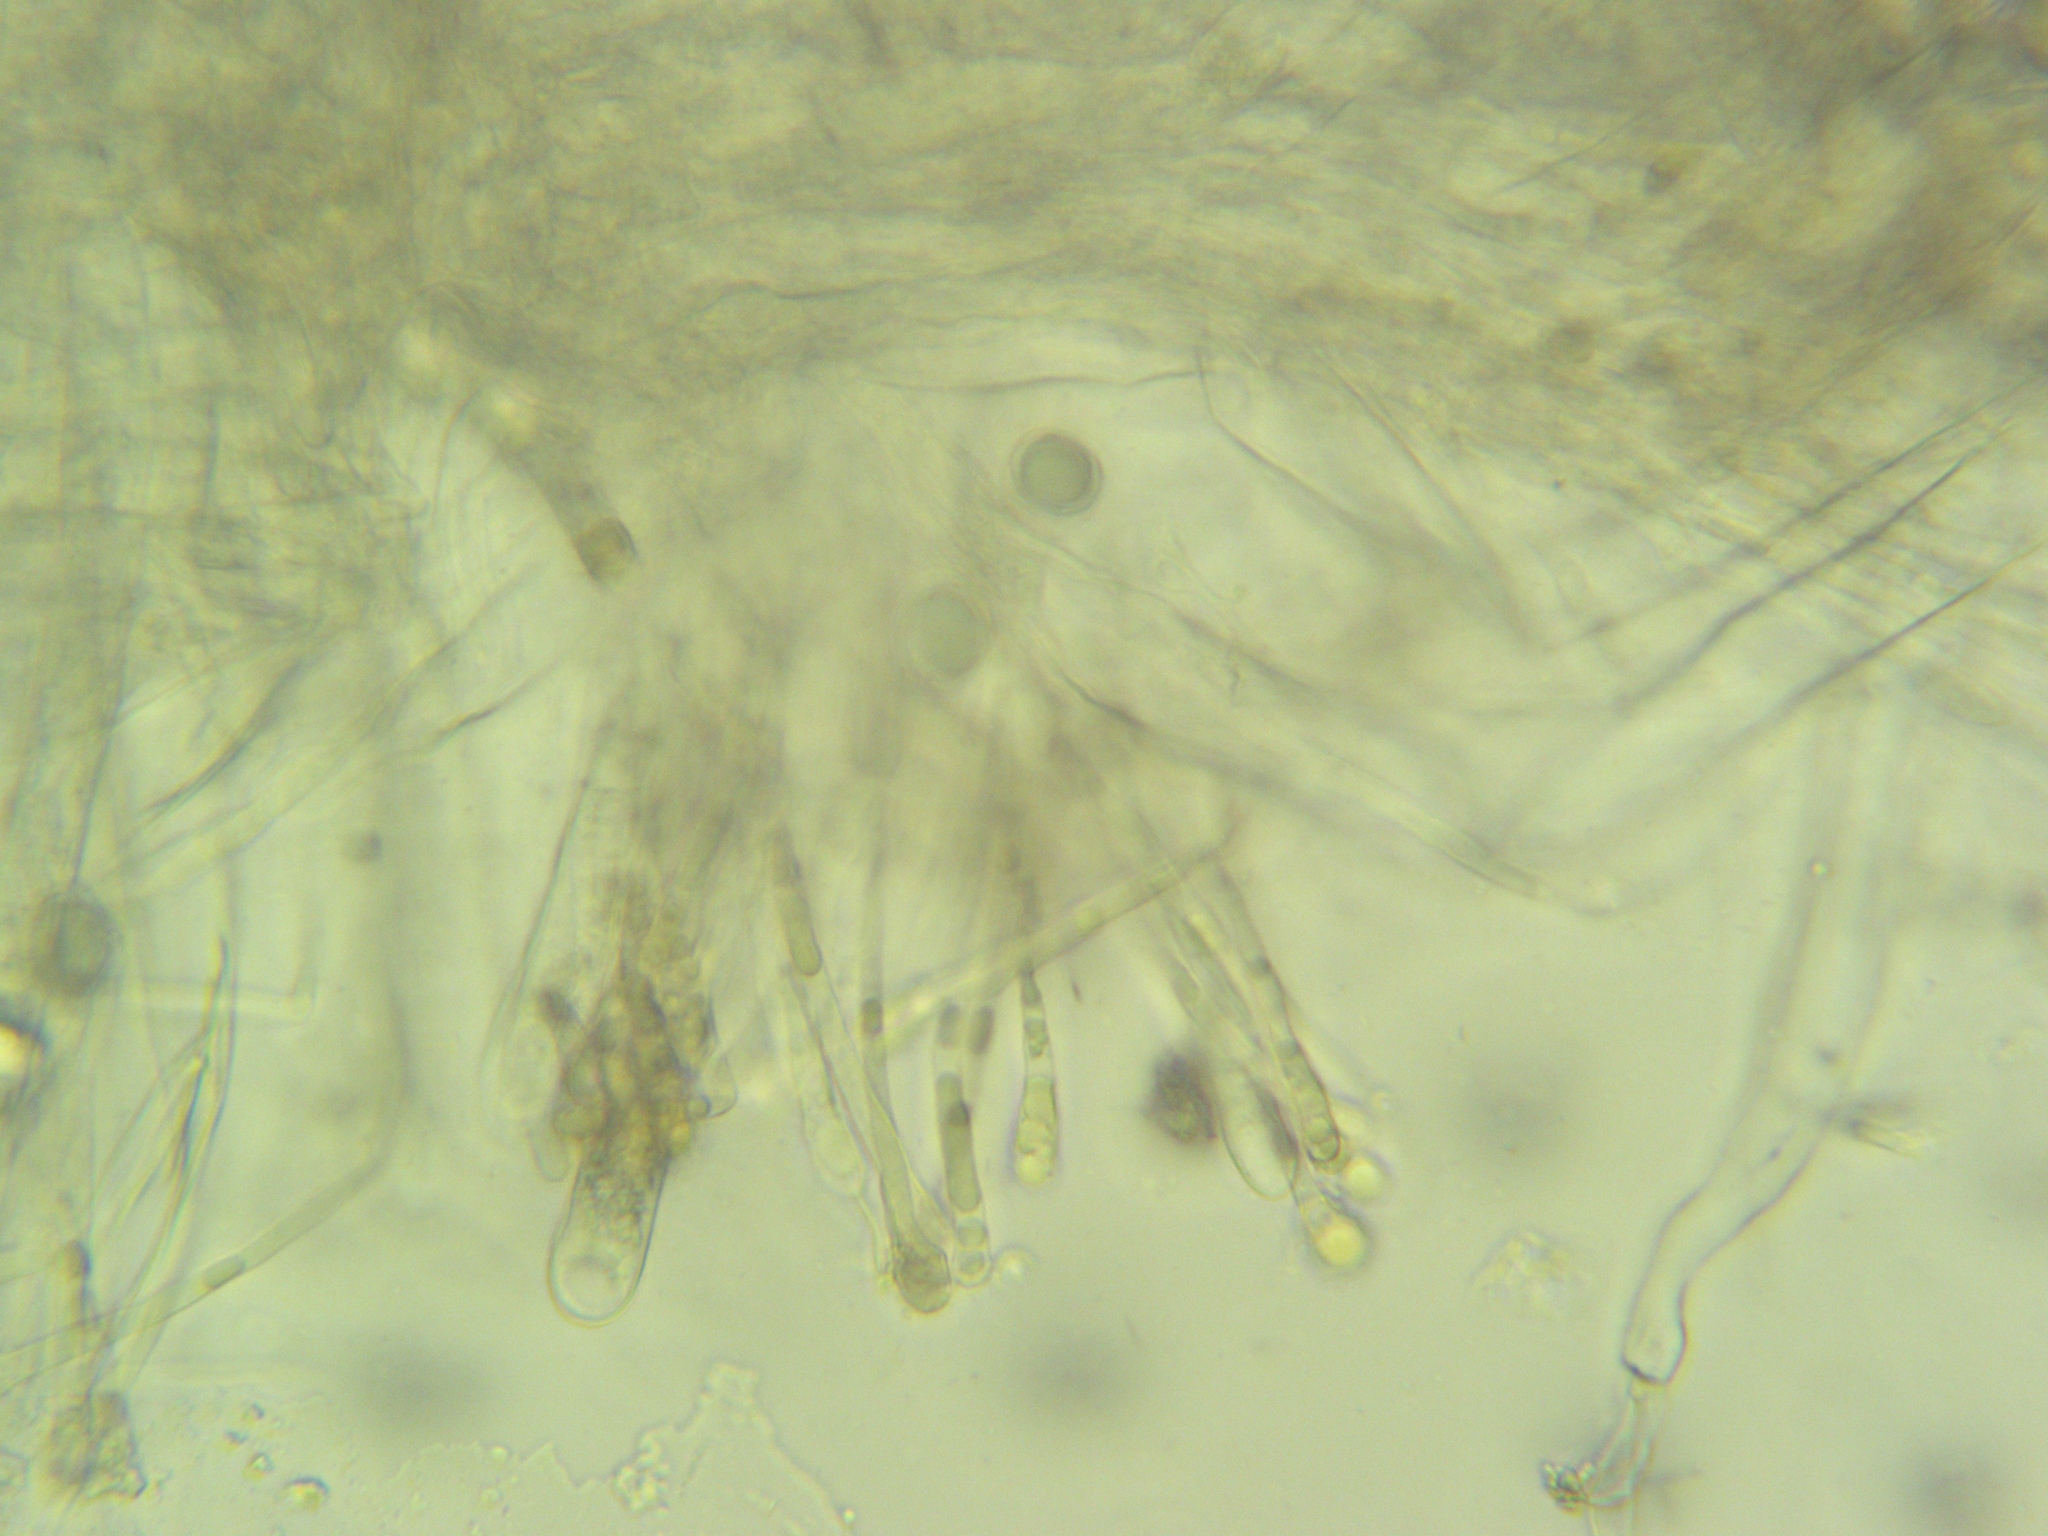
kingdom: Fungi
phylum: Ascomycota
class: Pezizomycetes
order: Pezizales
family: Helvellaceae
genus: Helvella
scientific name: Helvella acetabulum
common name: Vinegar cup
